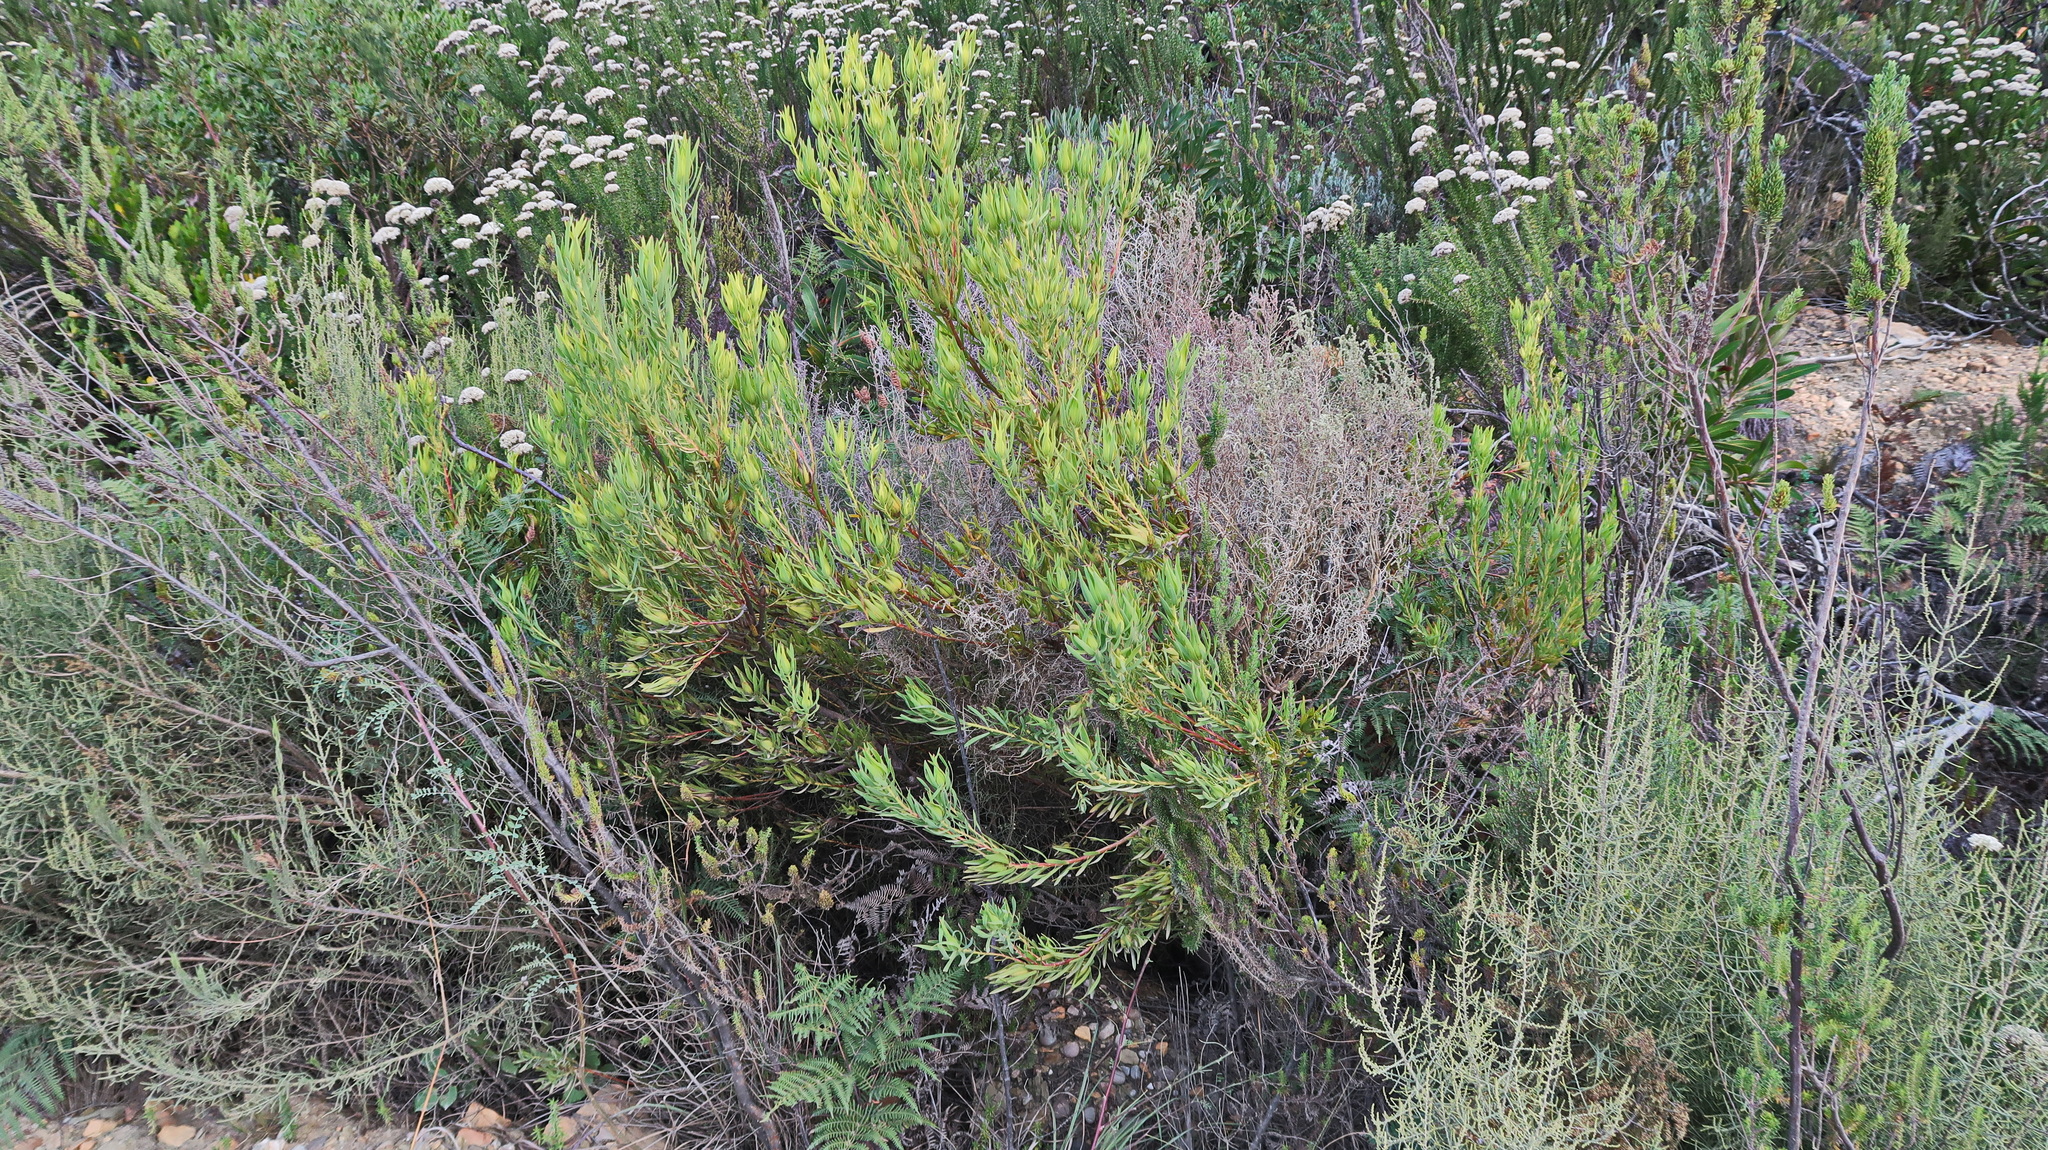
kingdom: Plantae
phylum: Tracheophyta
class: Magnoliopsida
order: Proteales
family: Proteaceae
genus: Leucadendron
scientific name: Leucadendron salignum
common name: Common sunshine conebush
